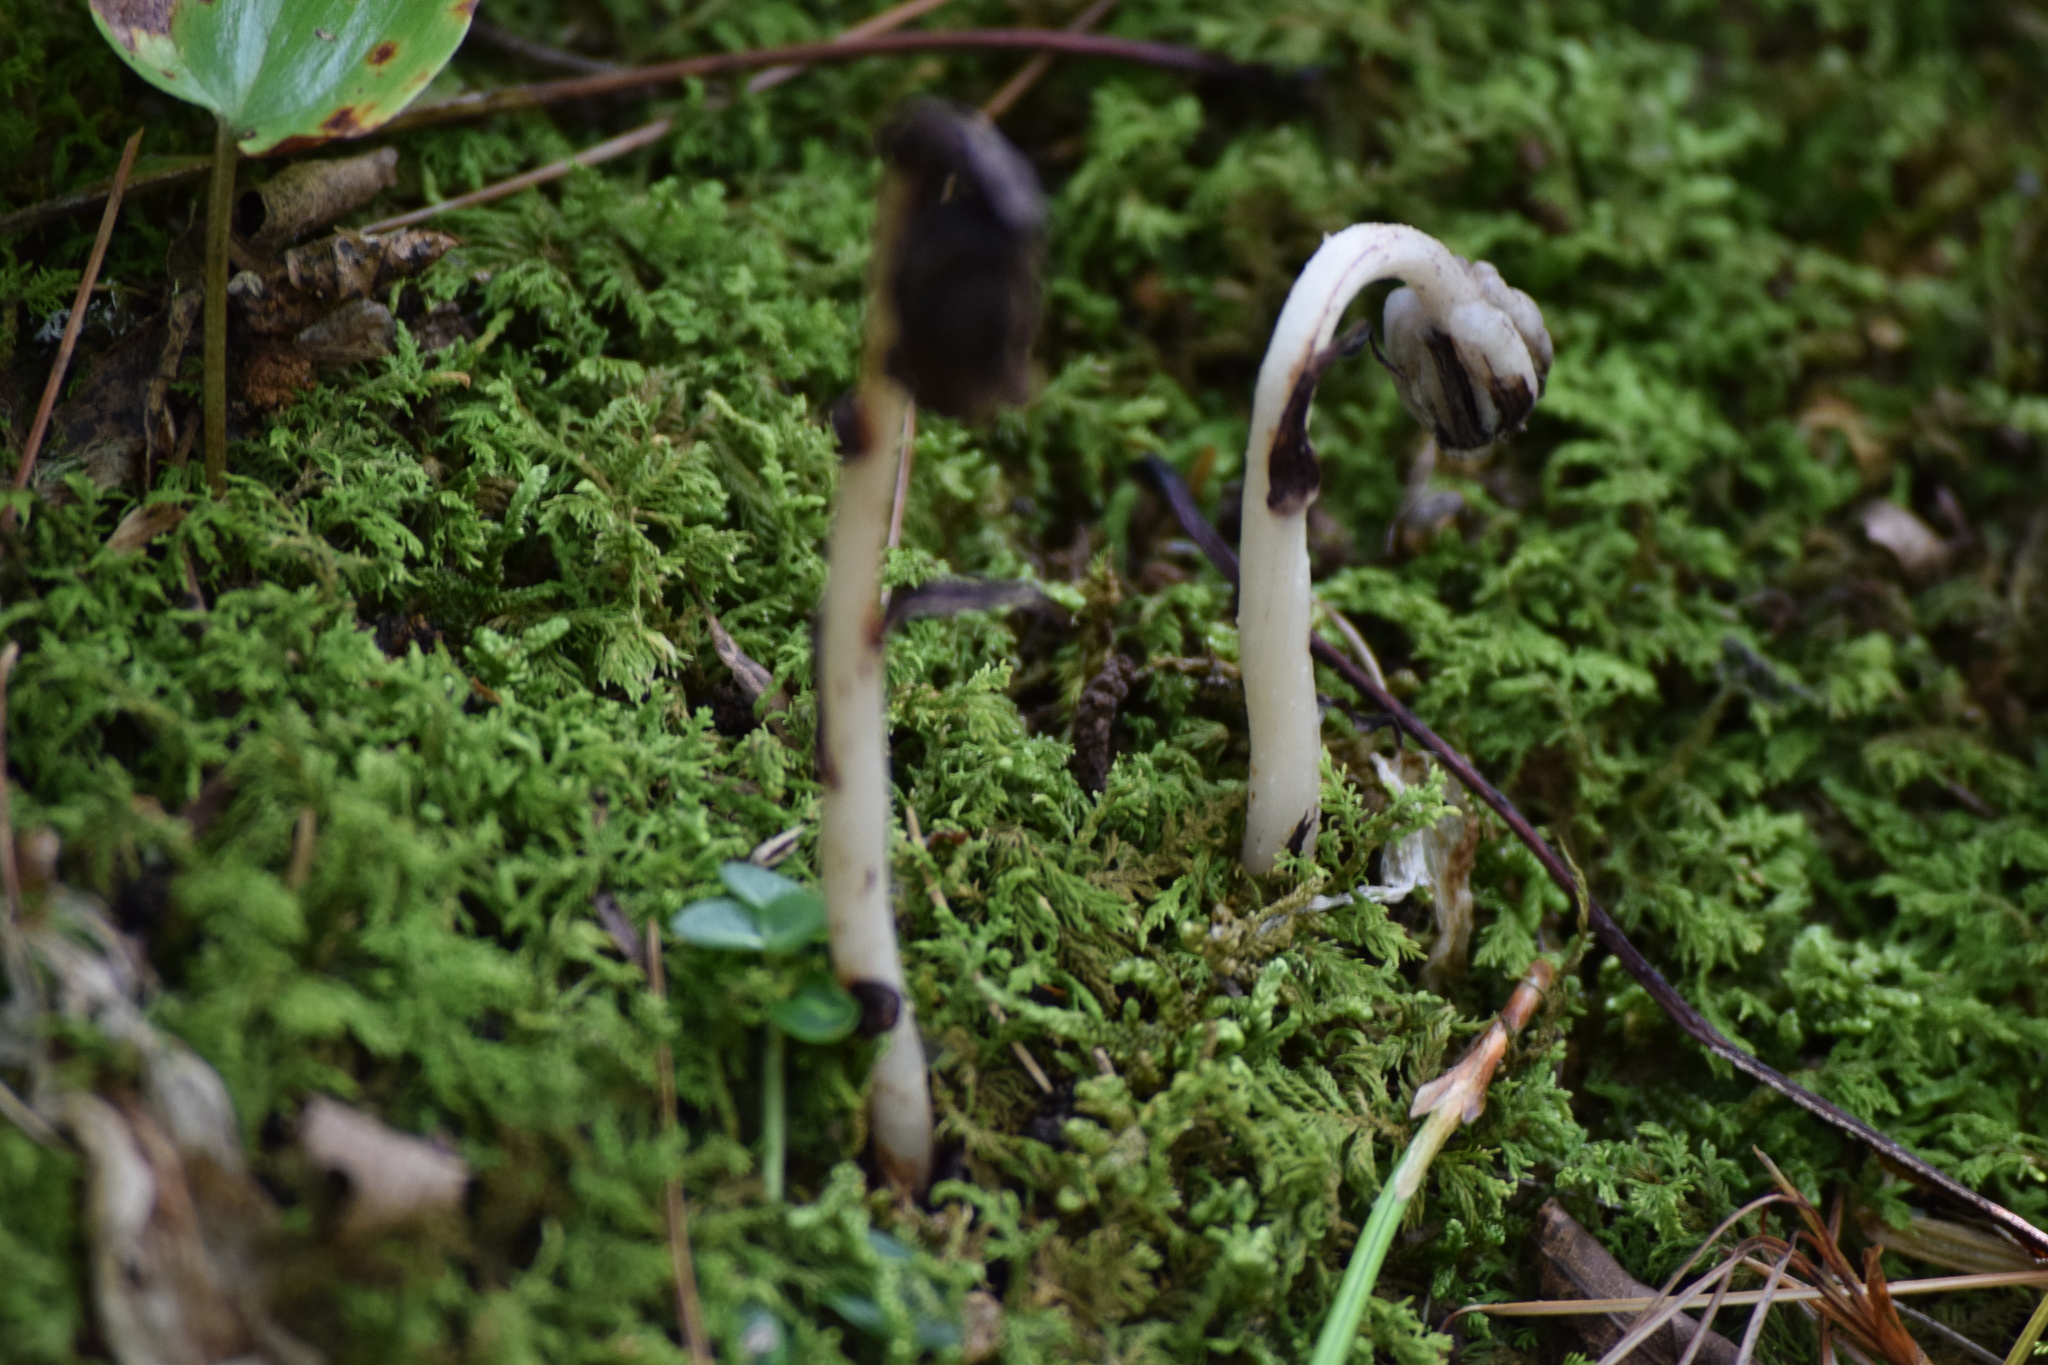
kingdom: Plantae
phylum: Tracheophyta
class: Magnoliopsida
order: Ericales
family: Ericaceae
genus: Monotropa
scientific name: Monotropa uniflora
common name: Convulsion root
